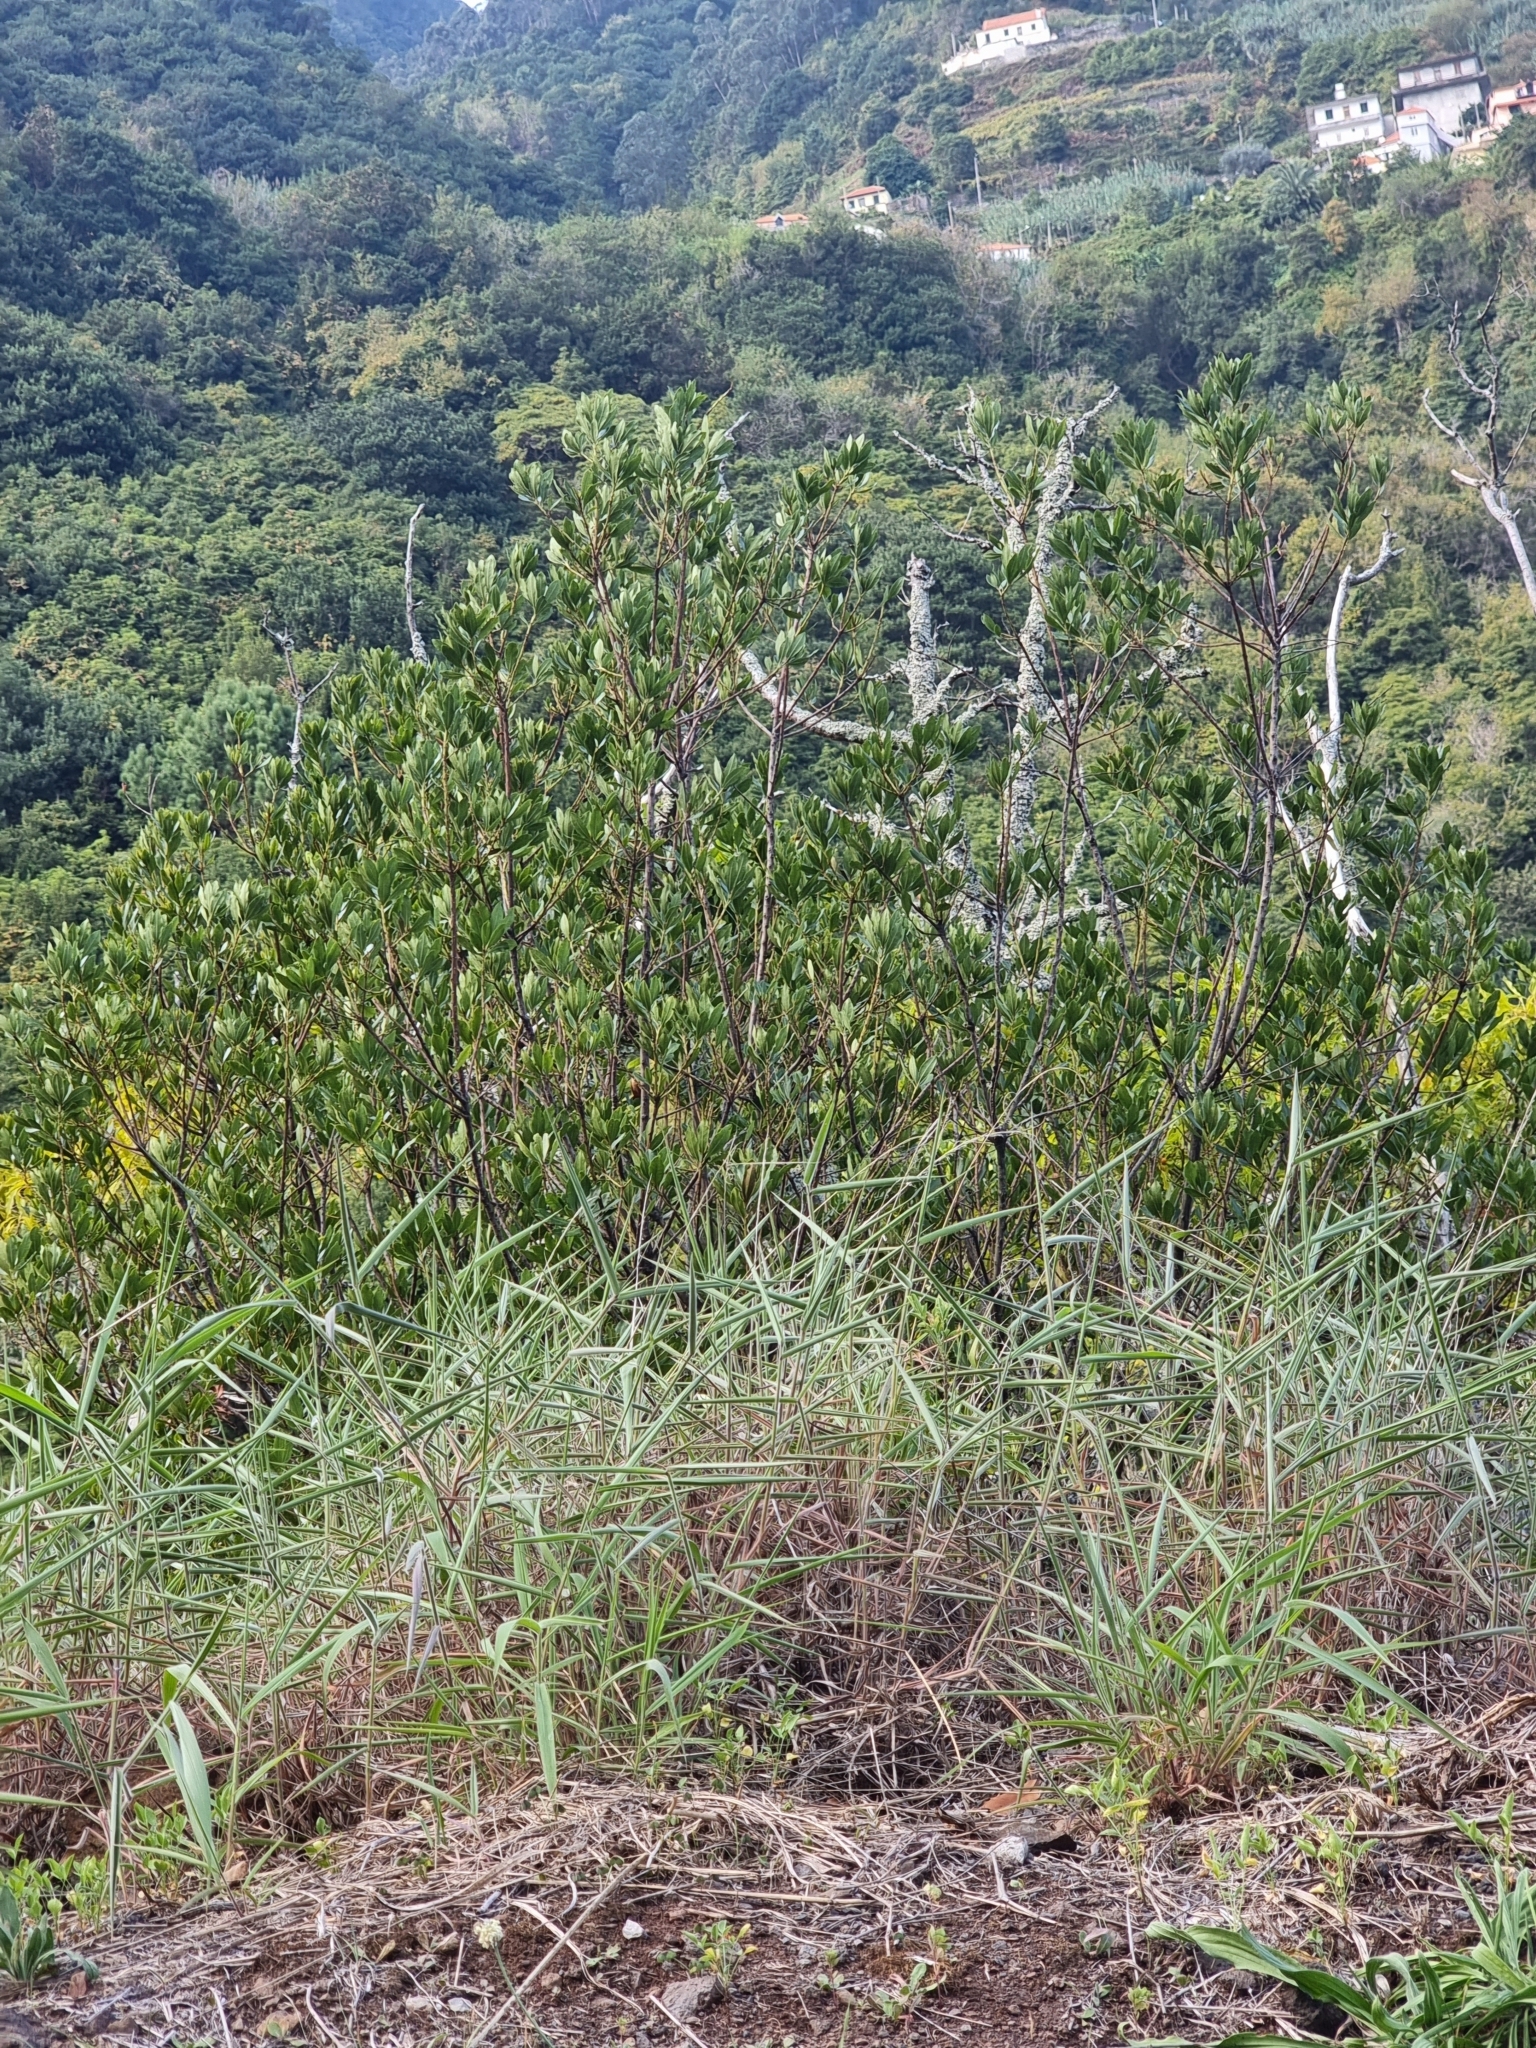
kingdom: Plantae
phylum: Tracheophyta
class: Magnoliopsida
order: Fagales
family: Myricaceae
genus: Morella
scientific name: Morella faya
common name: Firetree
